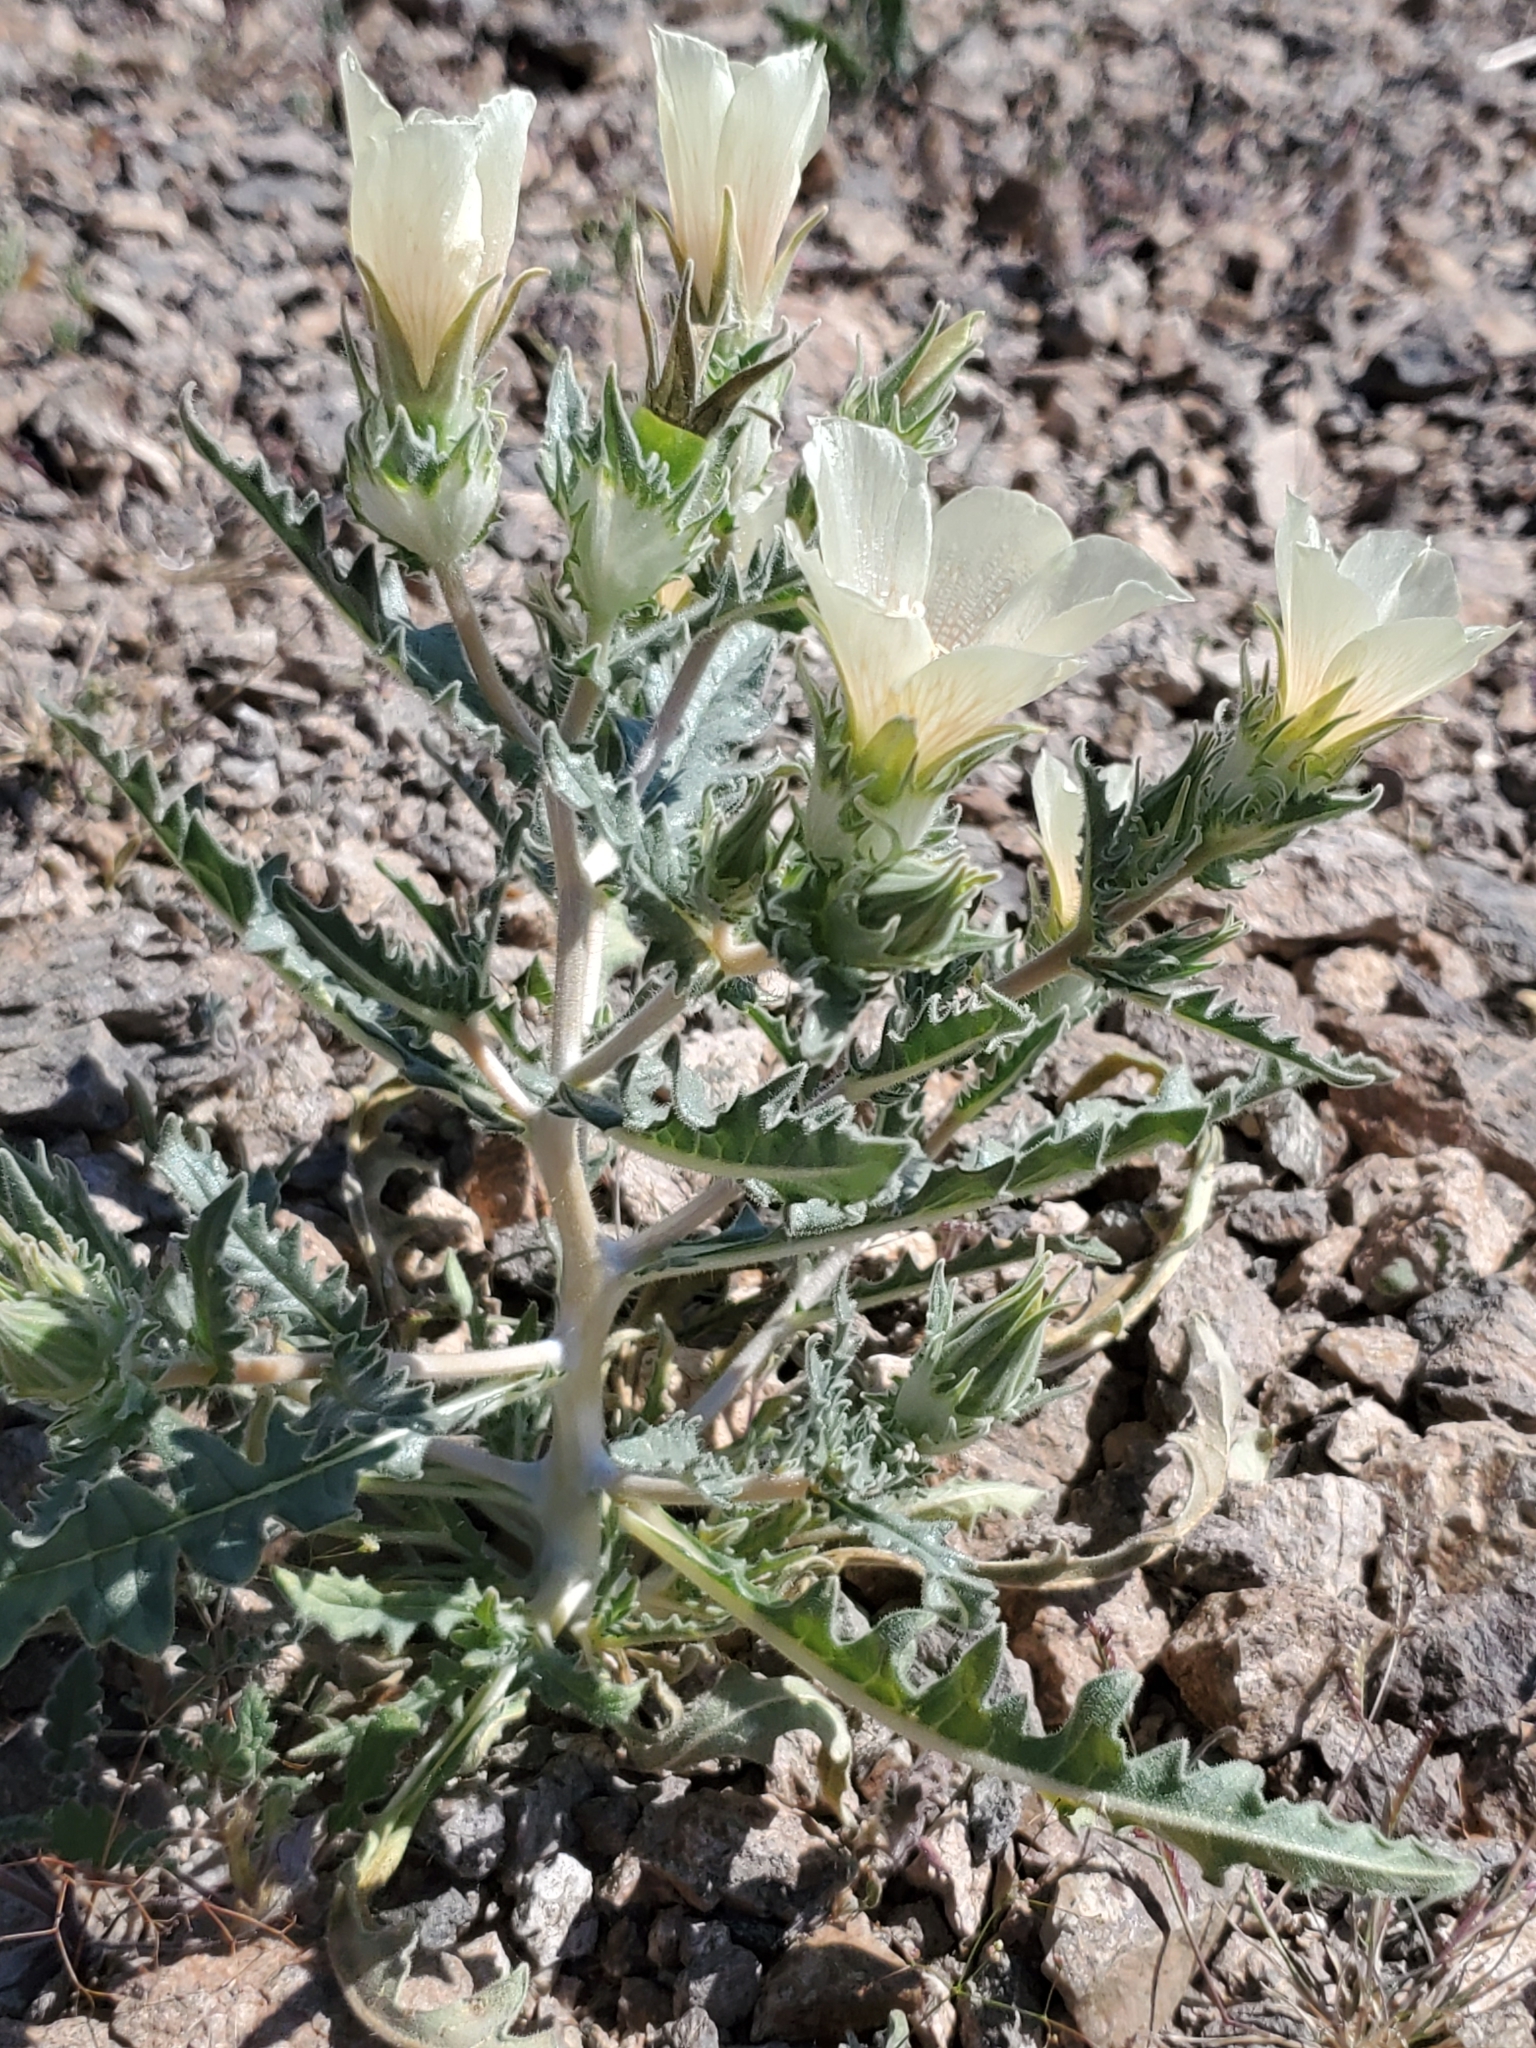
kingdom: Plantae
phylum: Tracheophyta
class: Magnoliopsida
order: Cornales
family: Loasaceae
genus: Mentzelia
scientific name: Mentzelia involucrata
